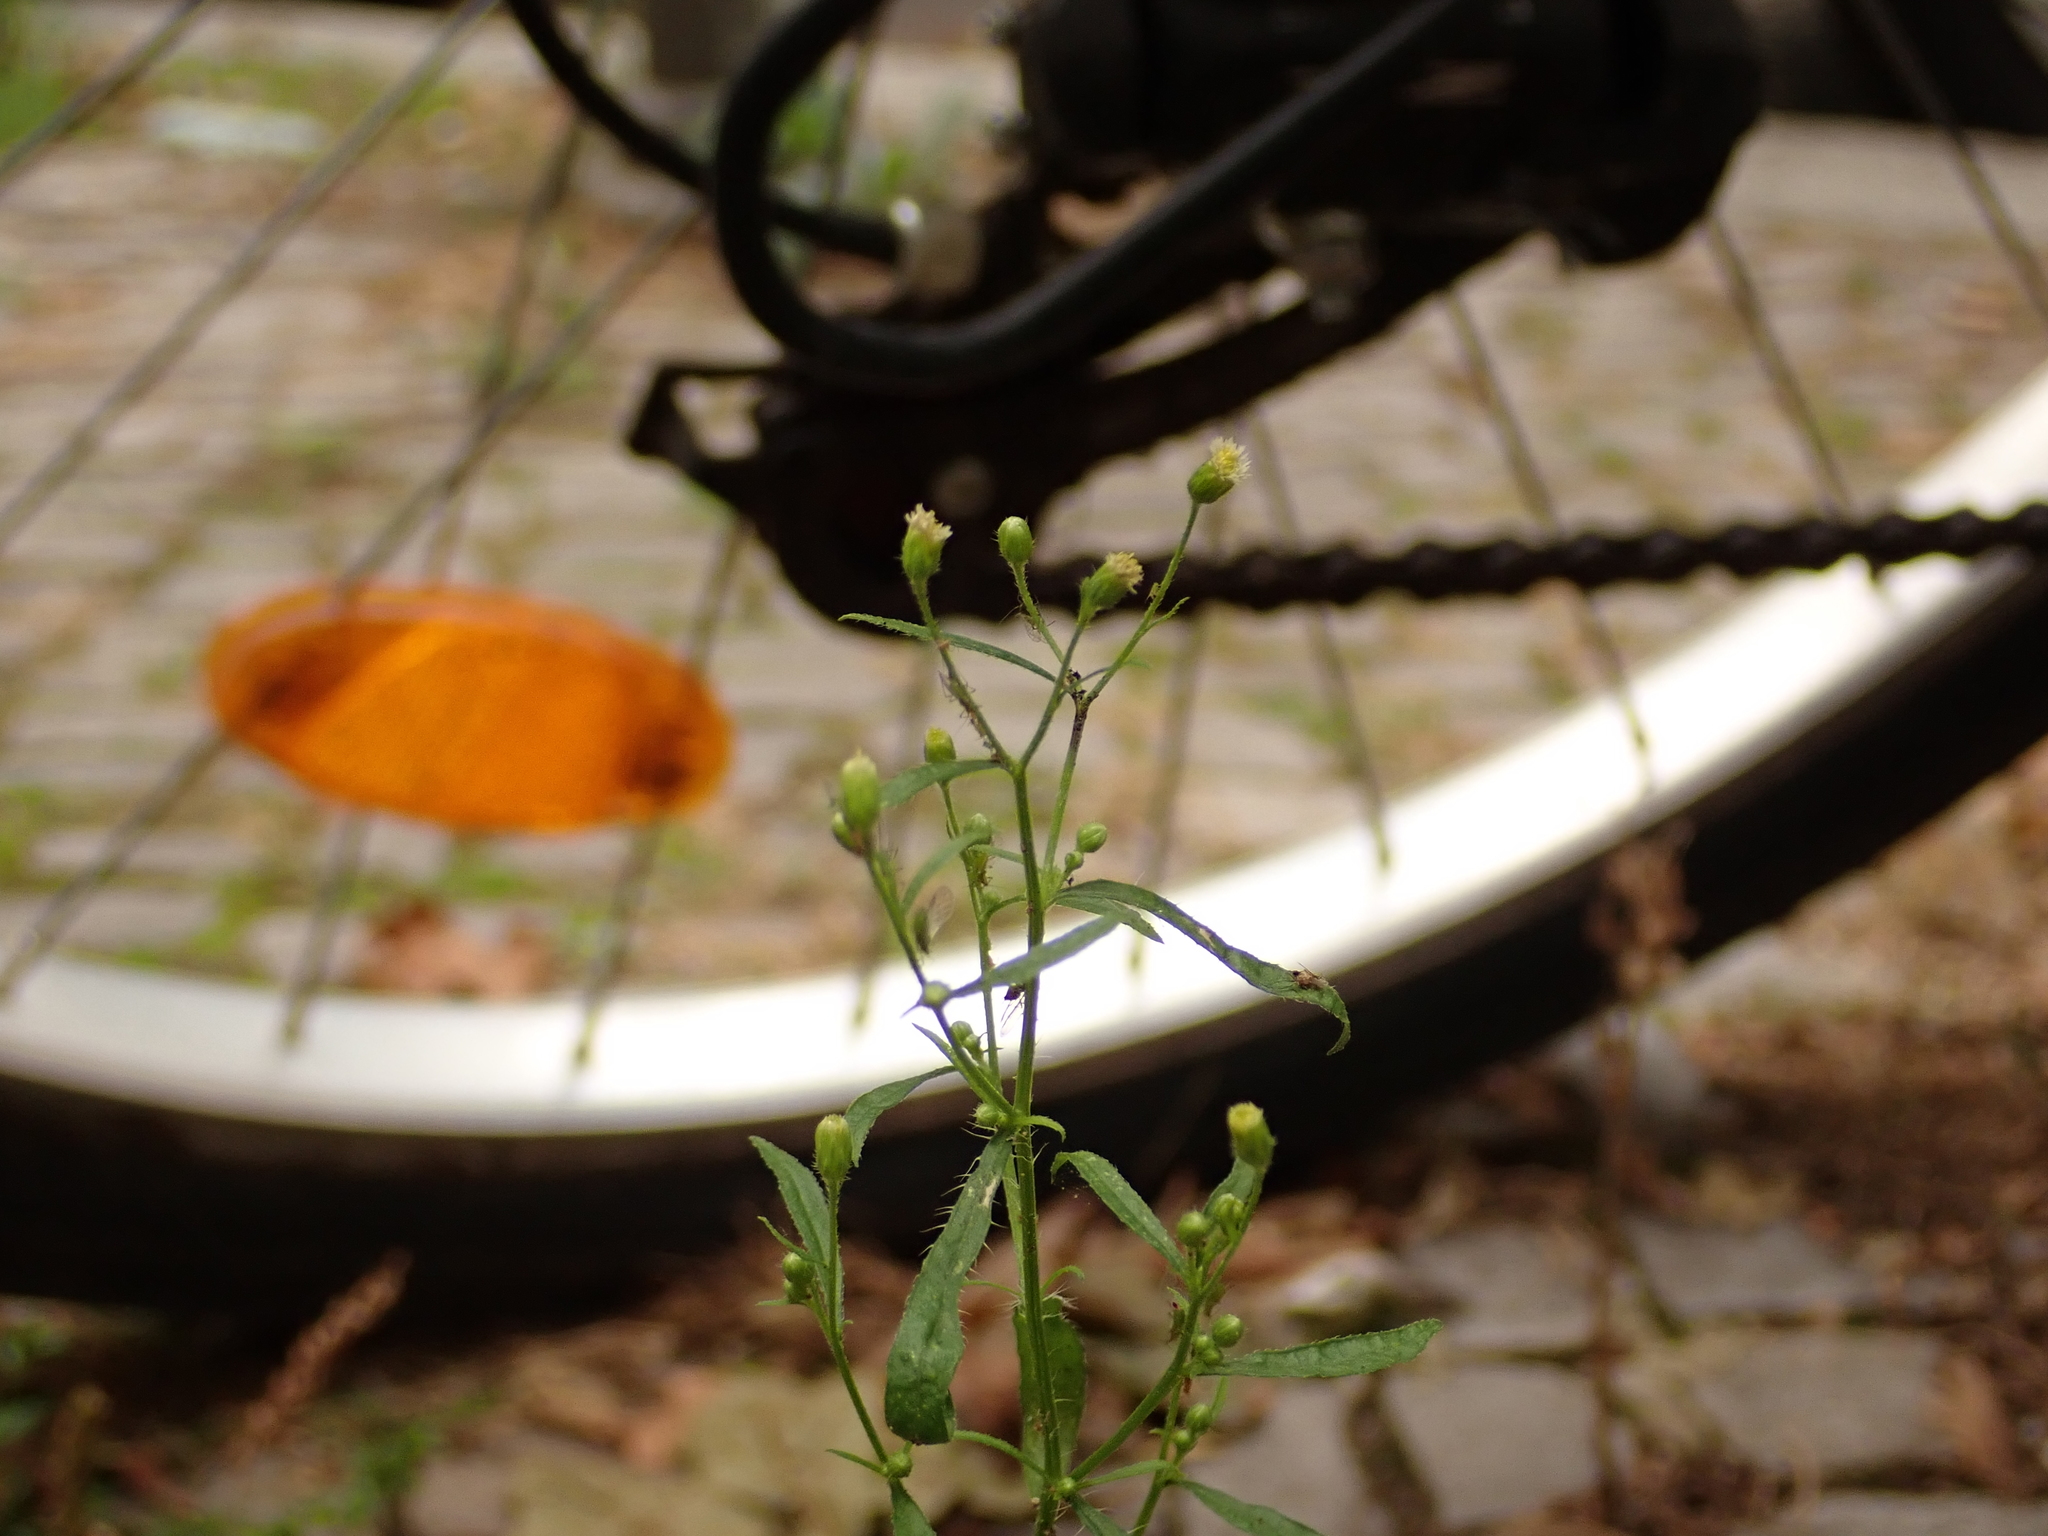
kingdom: Plantae
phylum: Tracheophyta
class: Magnoliopsida
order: Asterales
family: Asteraceae
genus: Erigeron
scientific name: Erigeron canadensis
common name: Canadian fleabane
